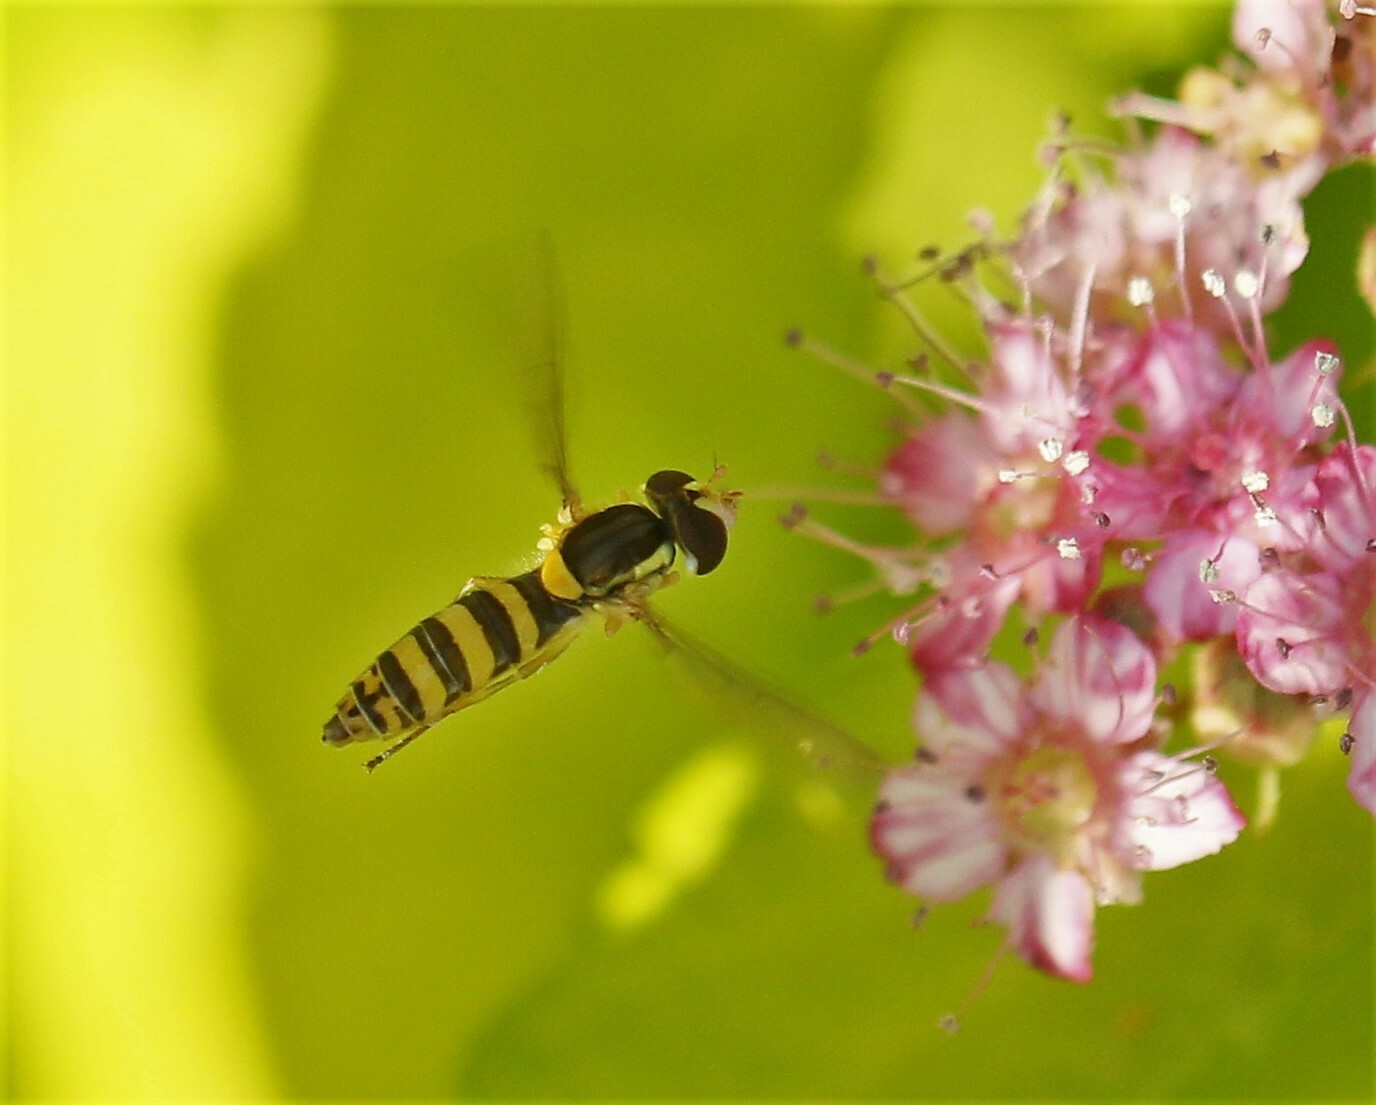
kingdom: Animalia
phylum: Arthropoda
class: Insecta
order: Diptera
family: Syrphidae
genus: Sphaerophoria
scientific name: Sphaerophoria
